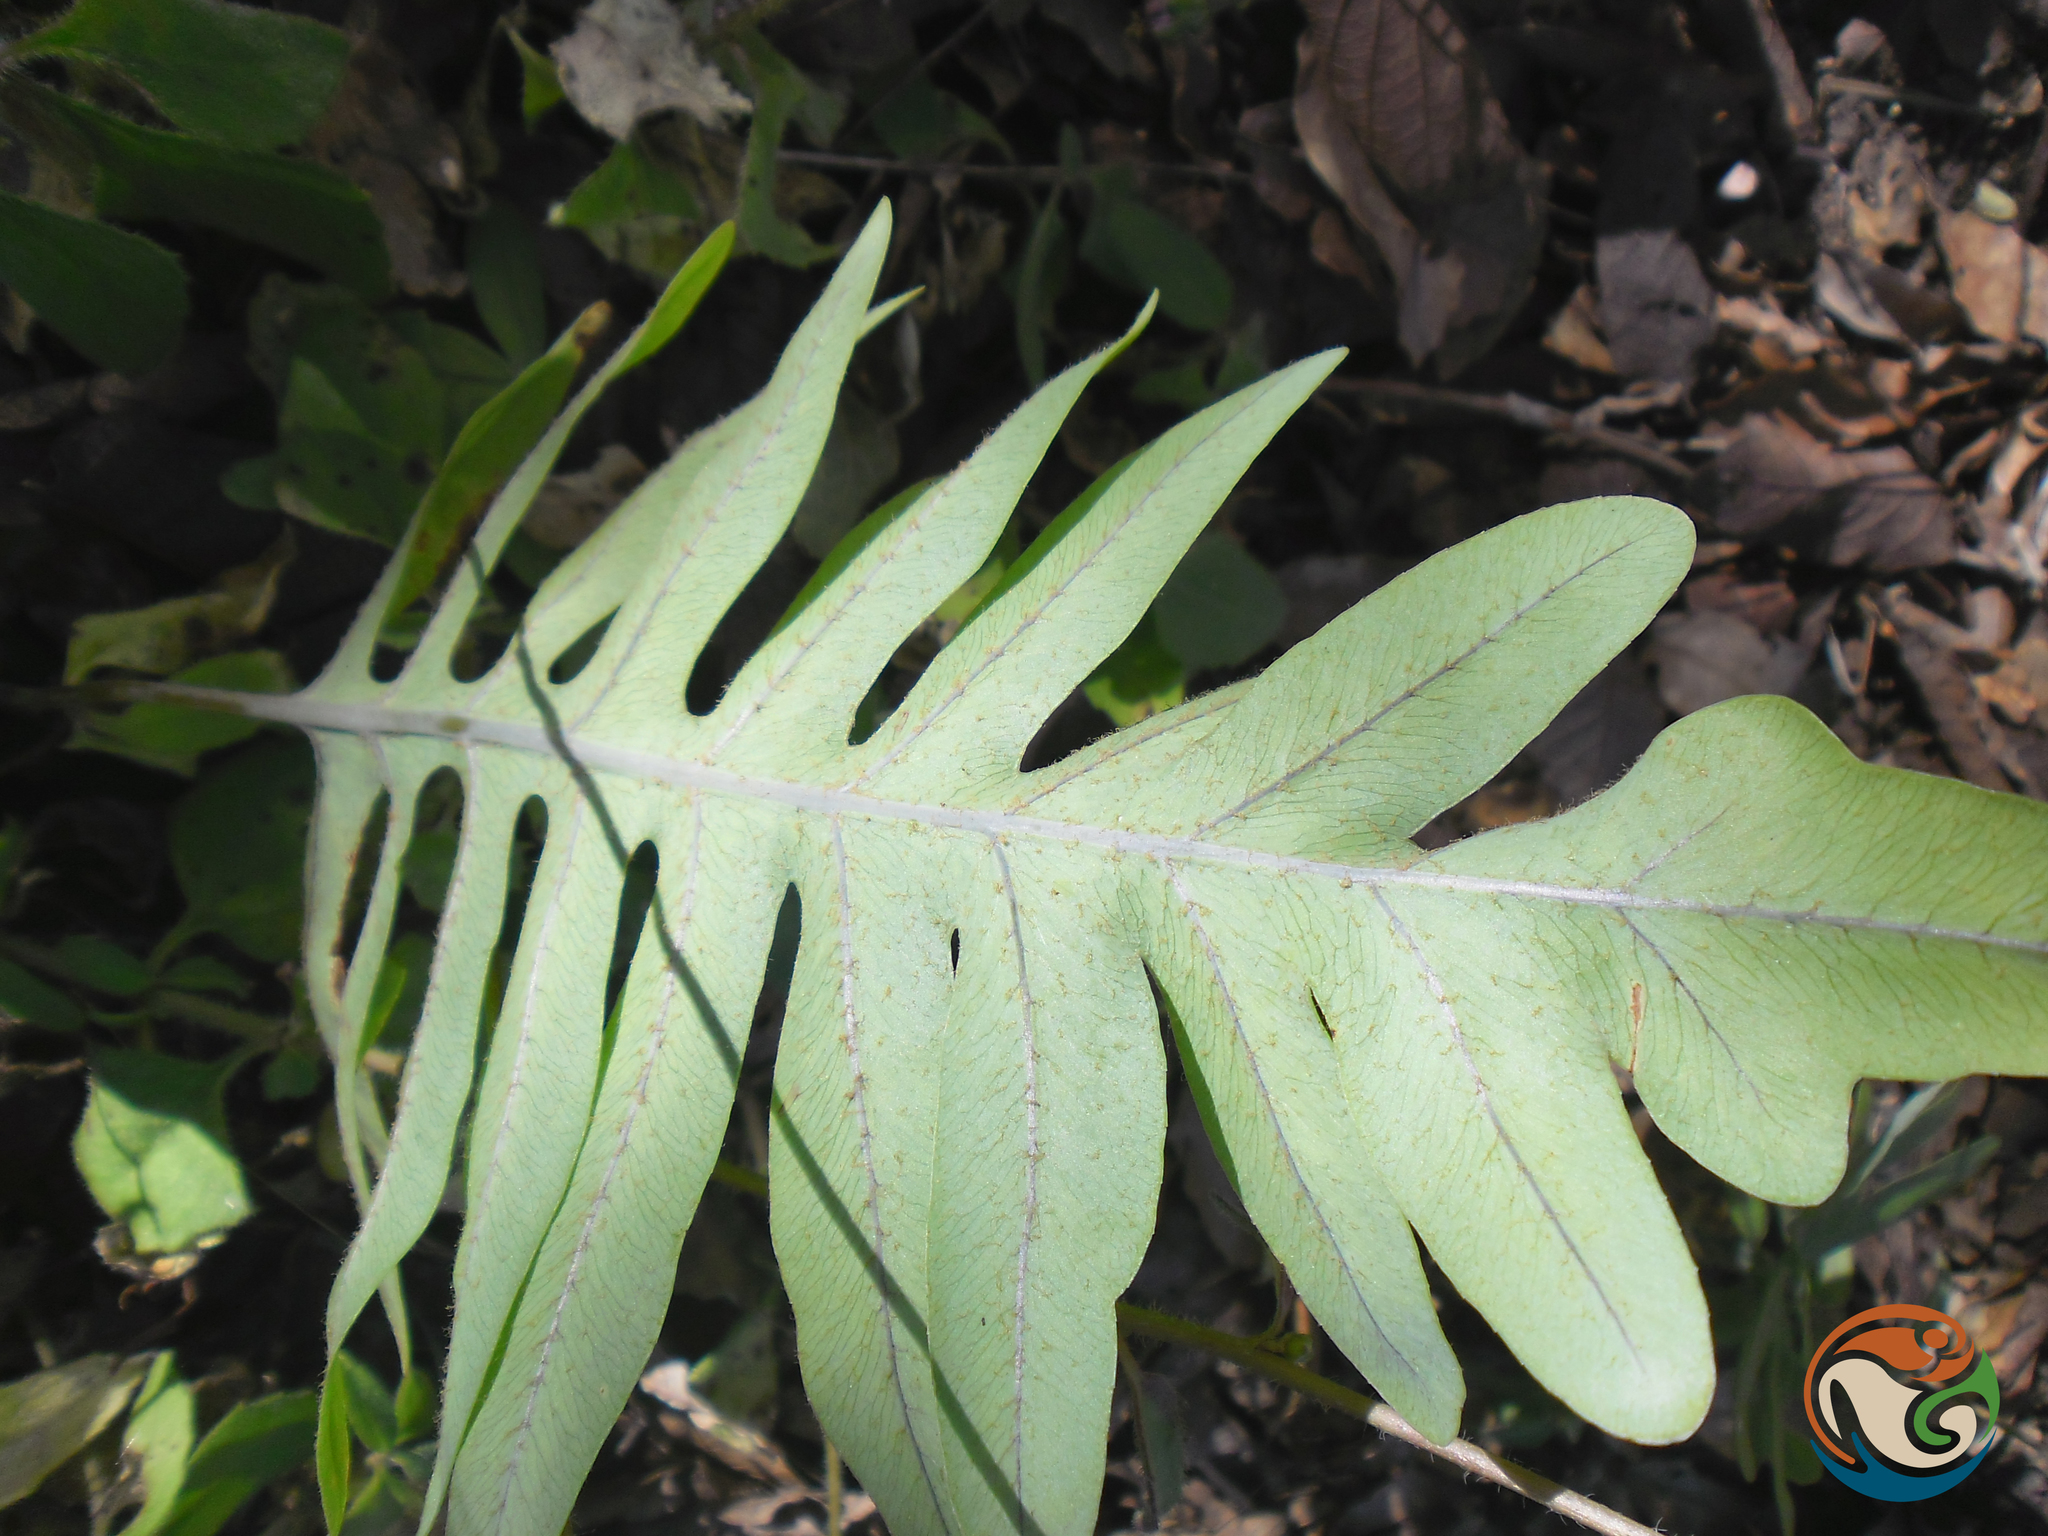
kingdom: Plantae
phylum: Tracheophyta
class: Polypodiopsida
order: Polypodiales
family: Polypodiaceae
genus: Phlebodium
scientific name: Phlebodium pseudoaureum
